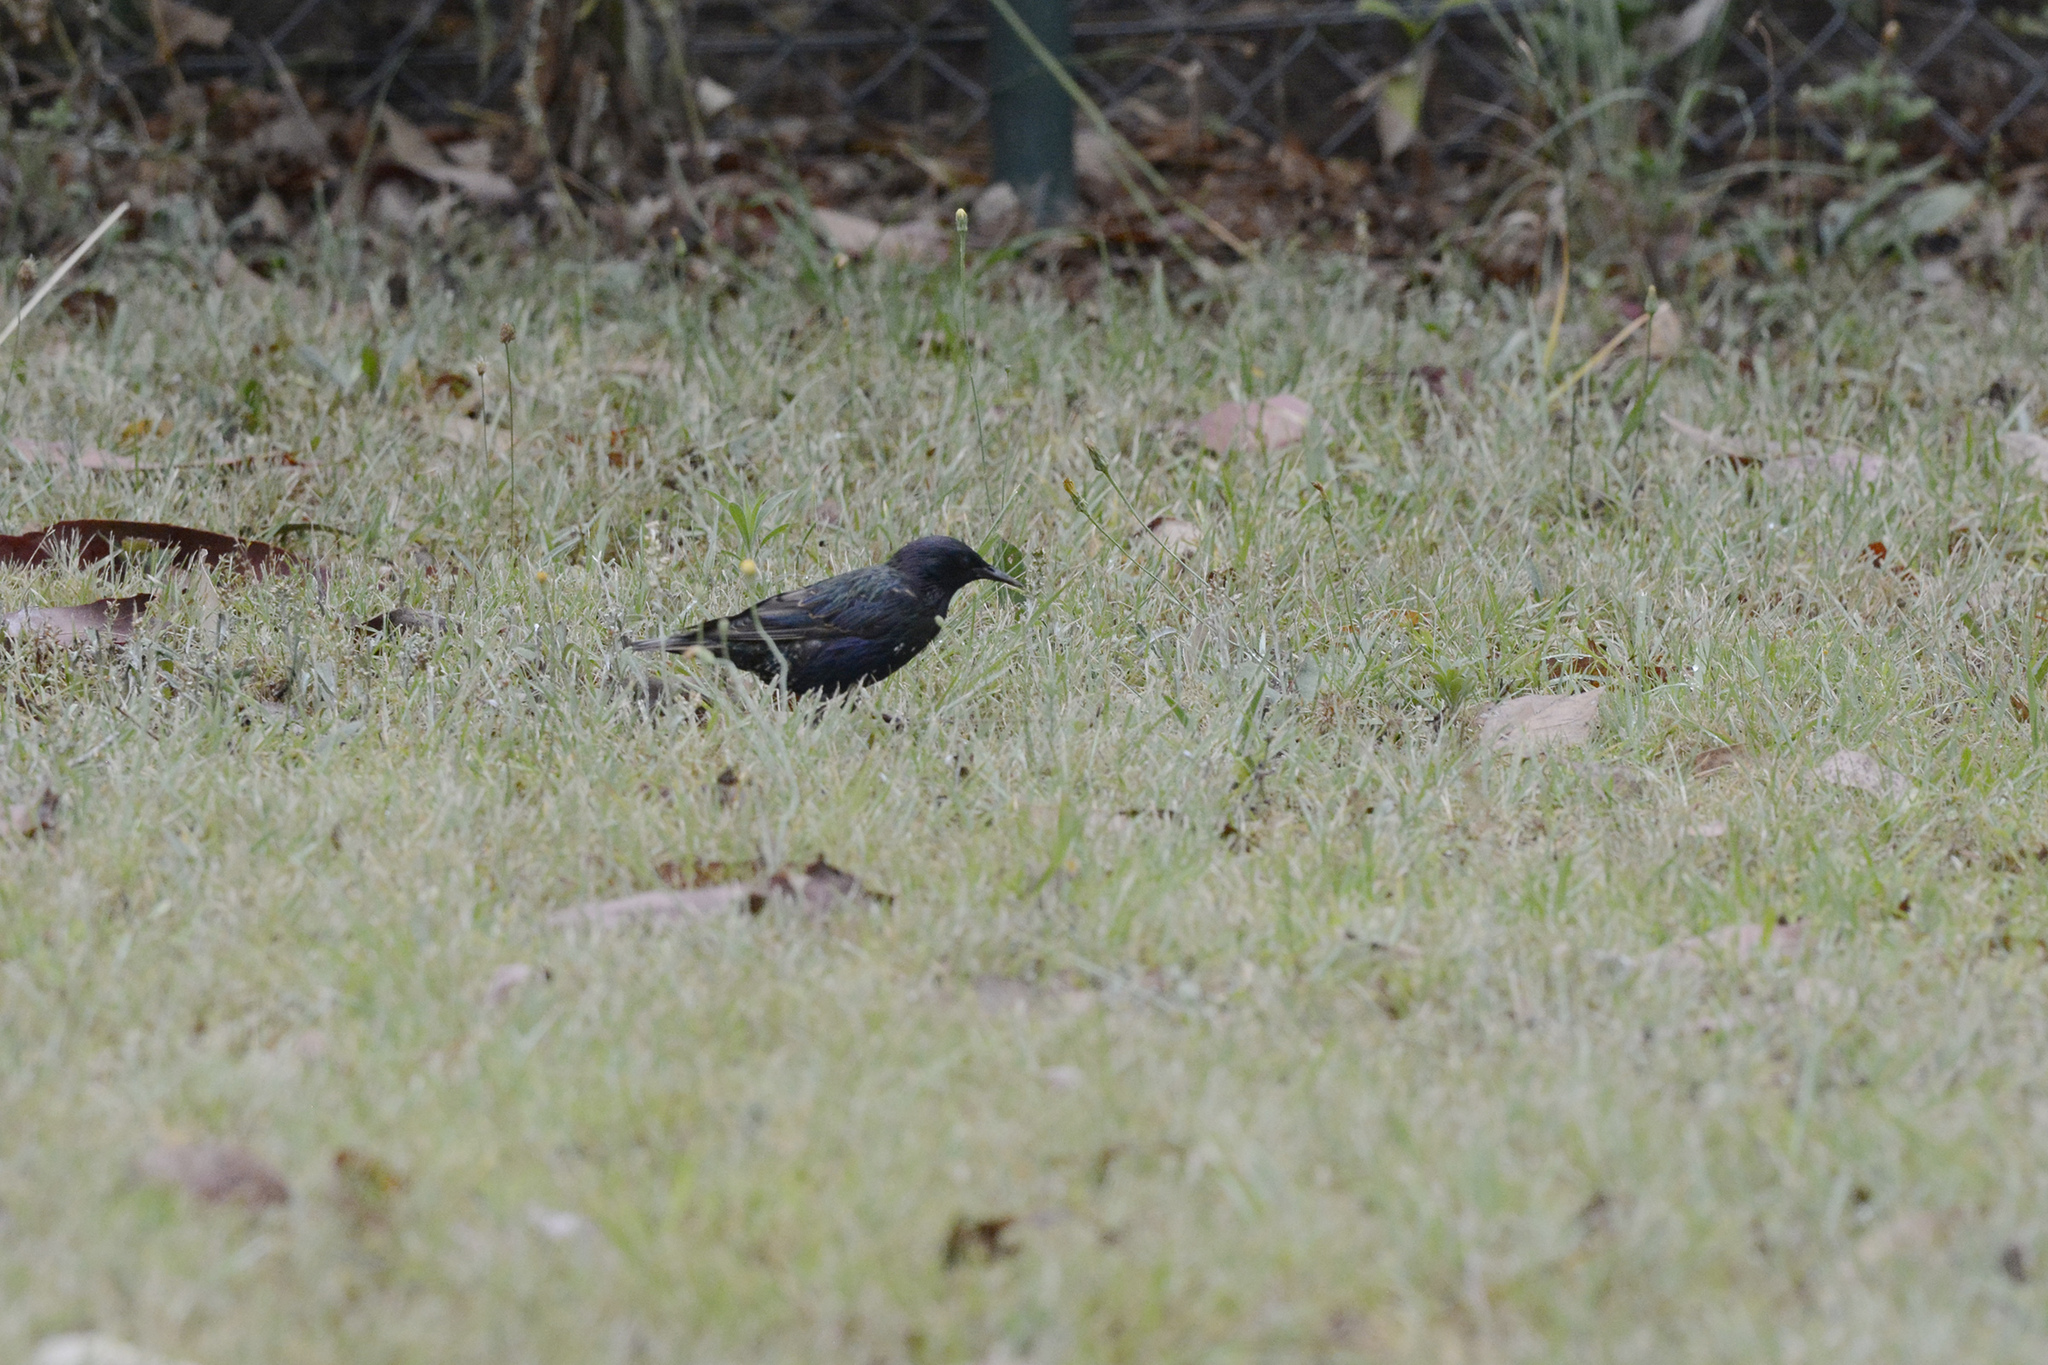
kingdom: Animalia
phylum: Chordata
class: Aves
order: Passeriformes
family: Sturnidae
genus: Sturnus
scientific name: Sturnus vulgaris
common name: Common starling
